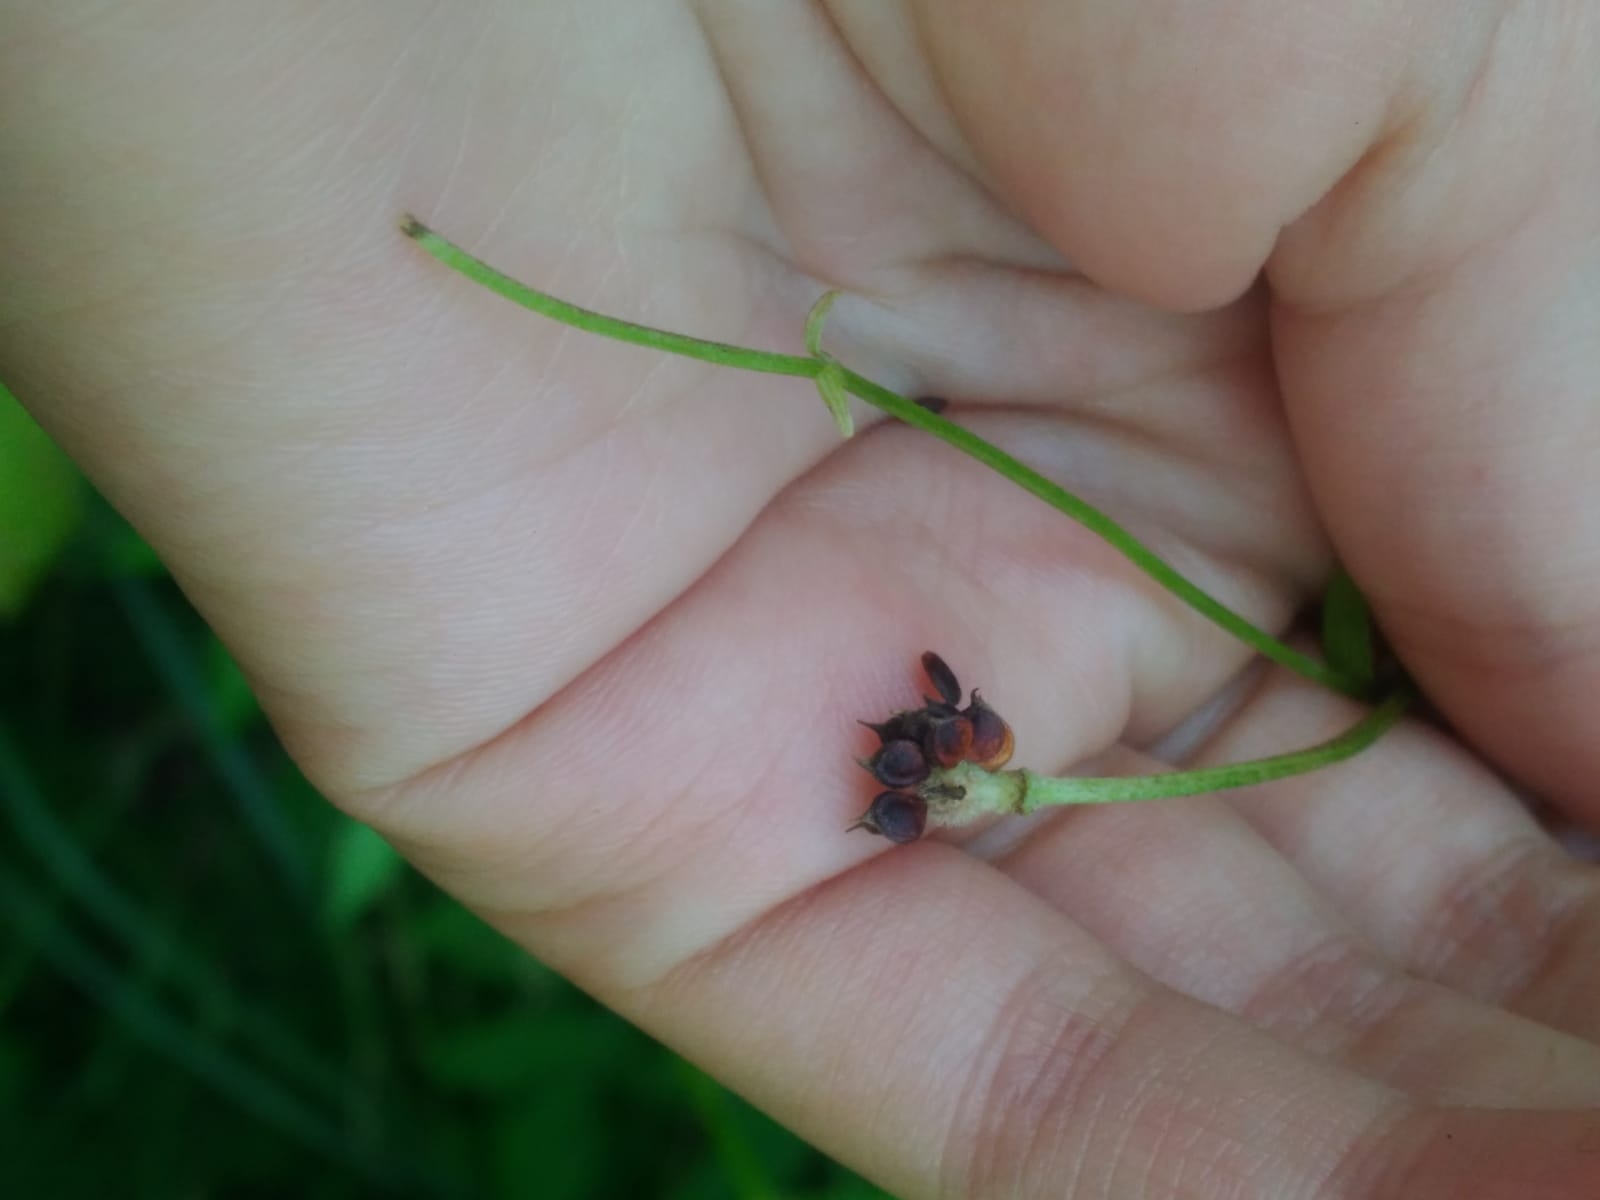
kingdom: Plantae
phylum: Tracheophyta
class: Magnoliopsida
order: Rosales
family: Rosaceae
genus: Sanguisorba
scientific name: Sanguisorba officinalis
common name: Great burnet
